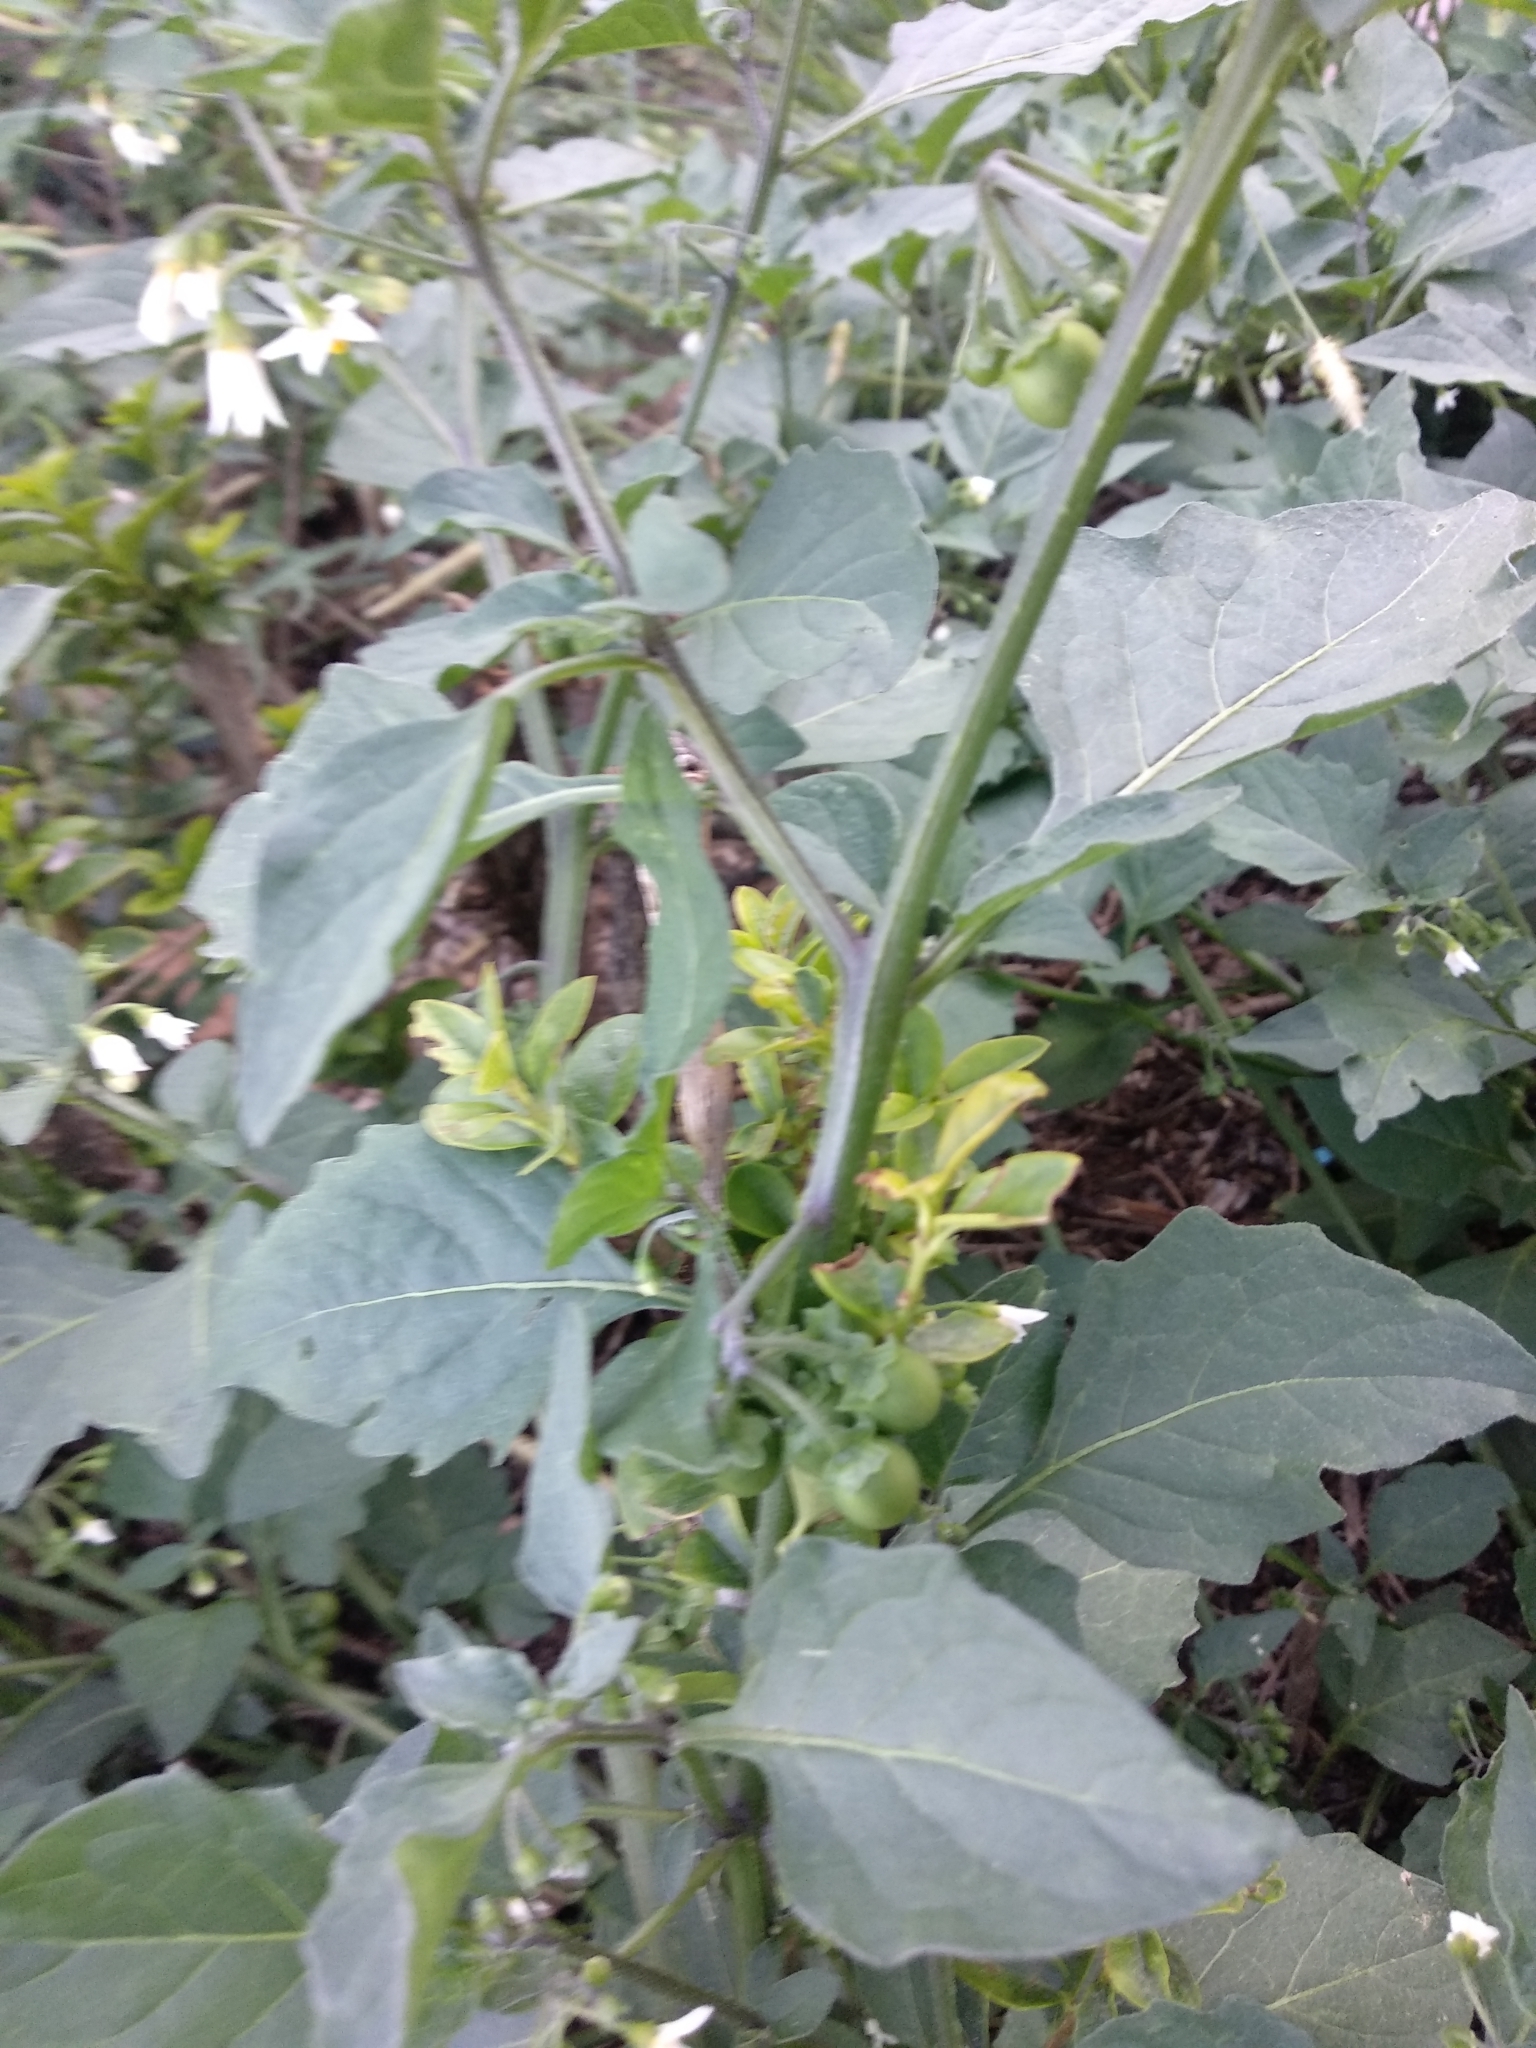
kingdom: Plantae
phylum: Tracheophyta
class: Magnoliopsida
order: Solanales
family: Solanaceae
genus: Solanum
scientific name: Solanum nigrum
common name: Black nightshade
